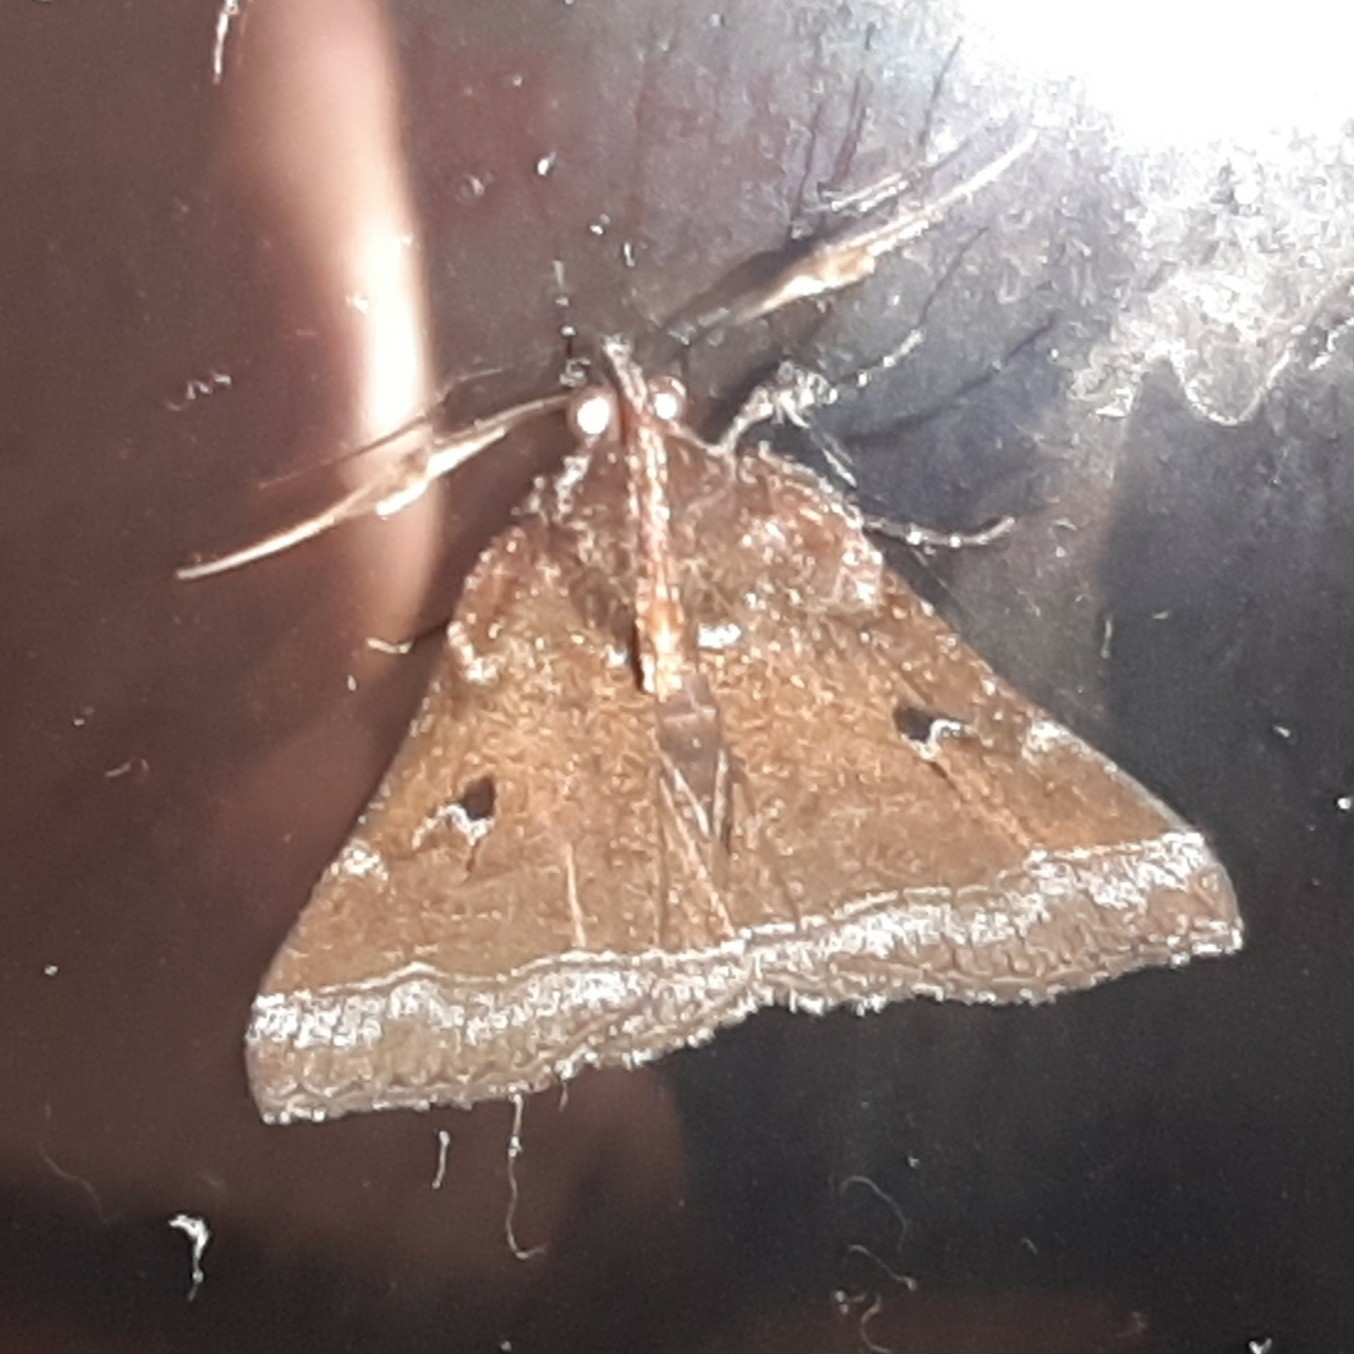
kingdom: Animalia
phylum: Arthropoda
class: Insecta
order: Lepidoptera
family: Erebidae
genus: Tarista
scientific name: Tarista lydia
